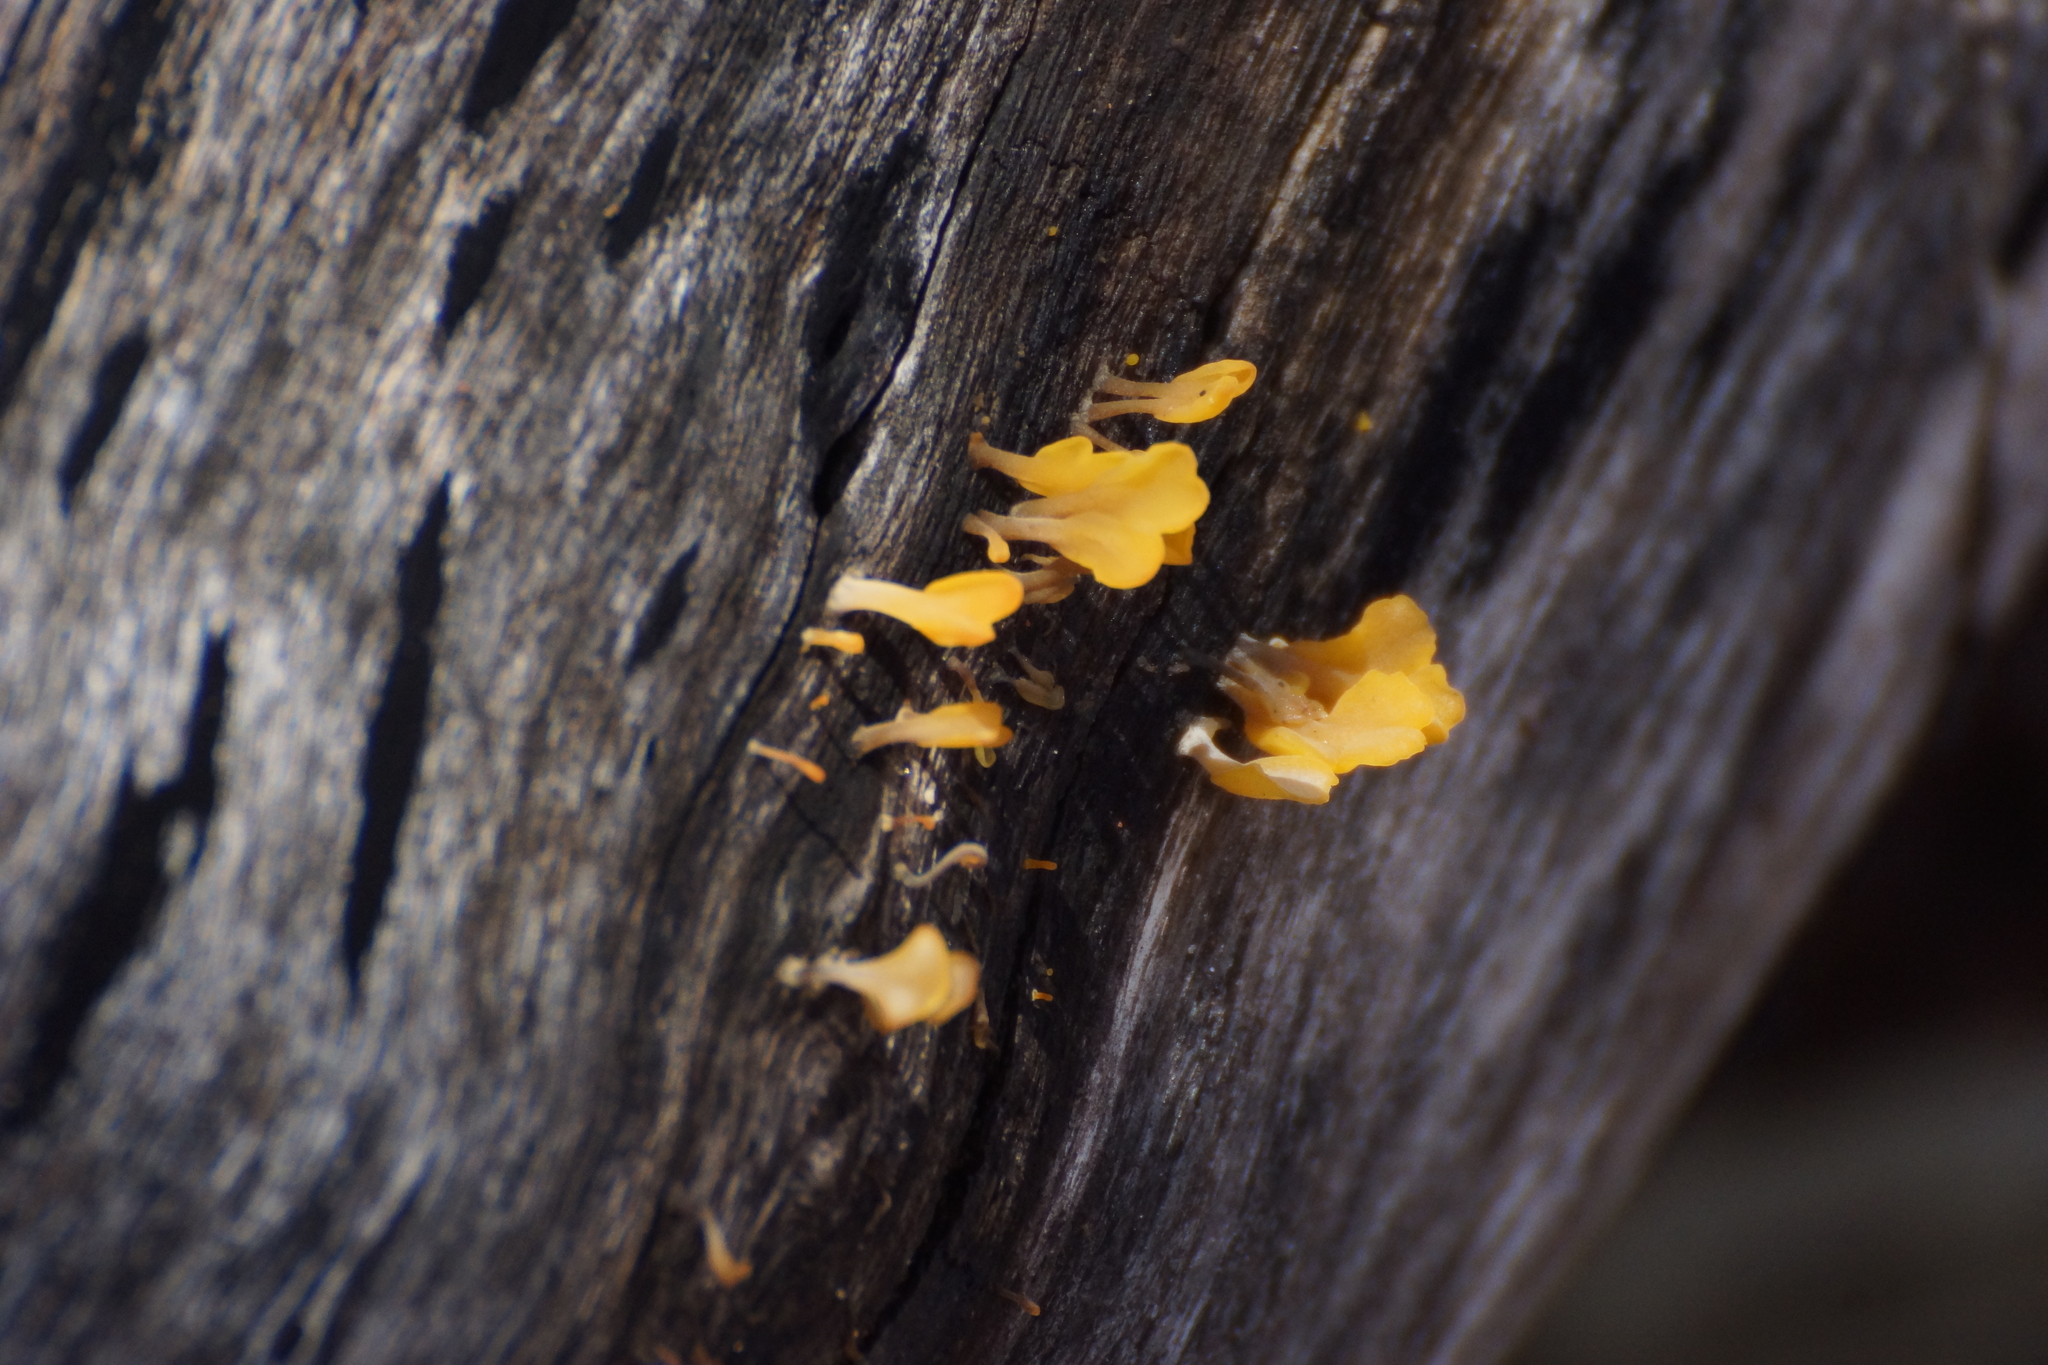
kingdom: Fungi
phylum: Basidiomycota
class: Dacrymycetes
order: Dacrymycetales
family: Dacrymycetaceae
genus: Dacrymyces
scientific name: Dacrymyces spathularius
